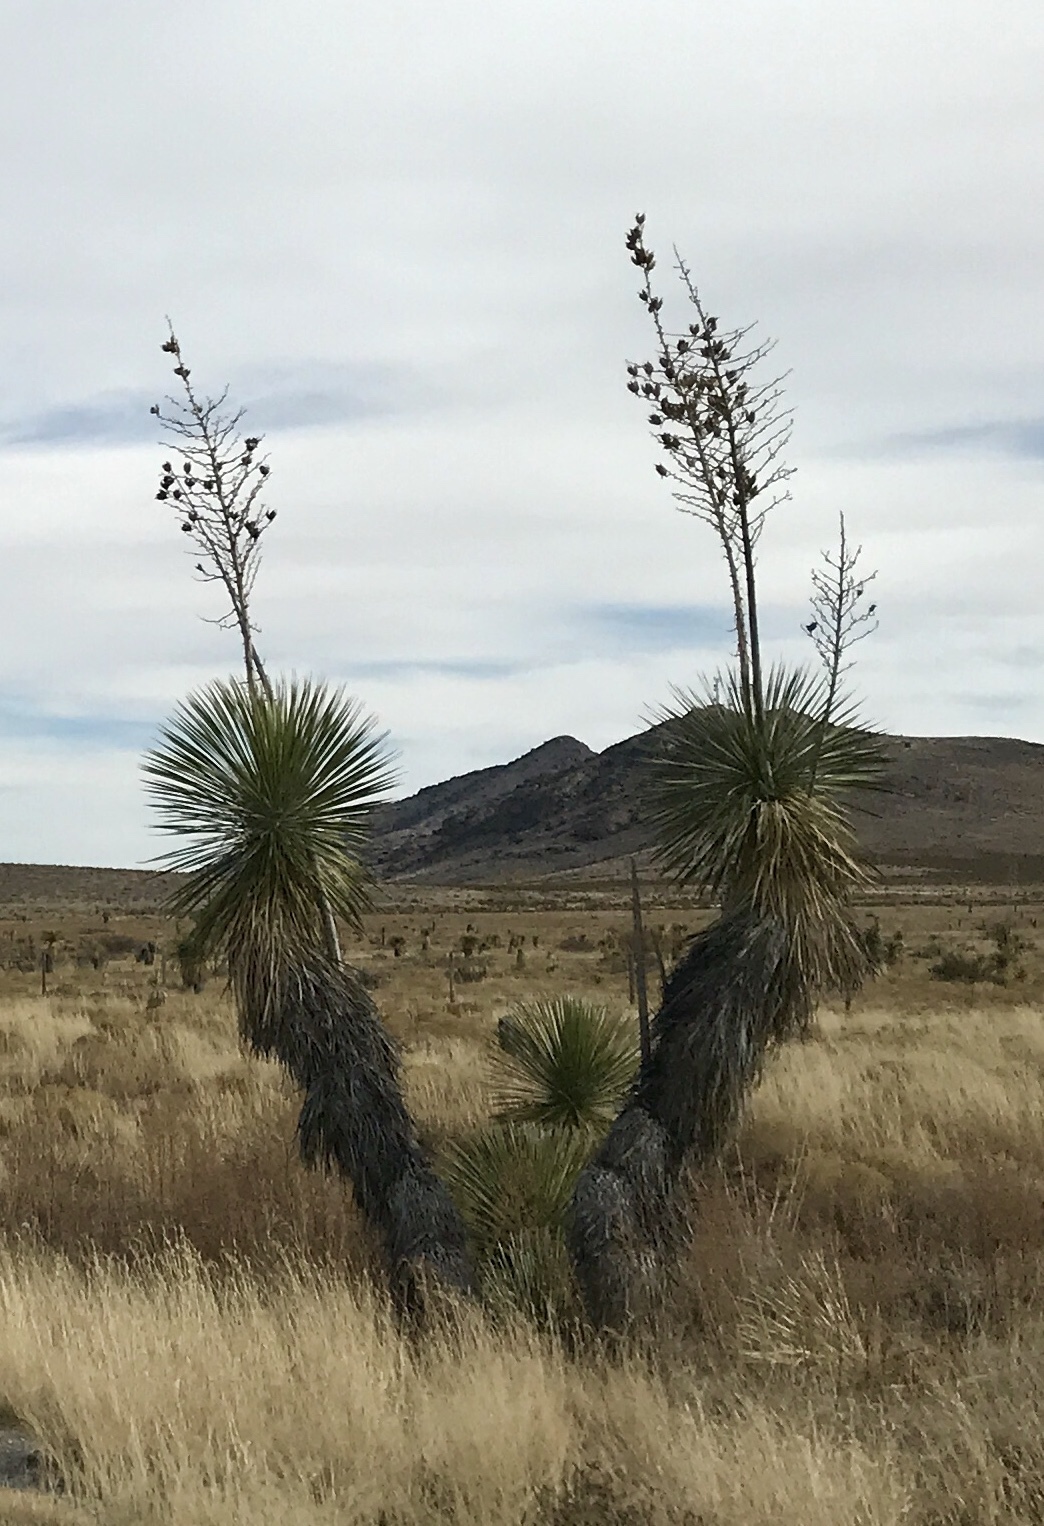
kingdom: Plantae
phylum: Tracheophyta
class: Liliopsida
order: Asparagales
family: Asparagaceae
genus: Yucca
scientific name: Yucca elata
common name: Palmella
